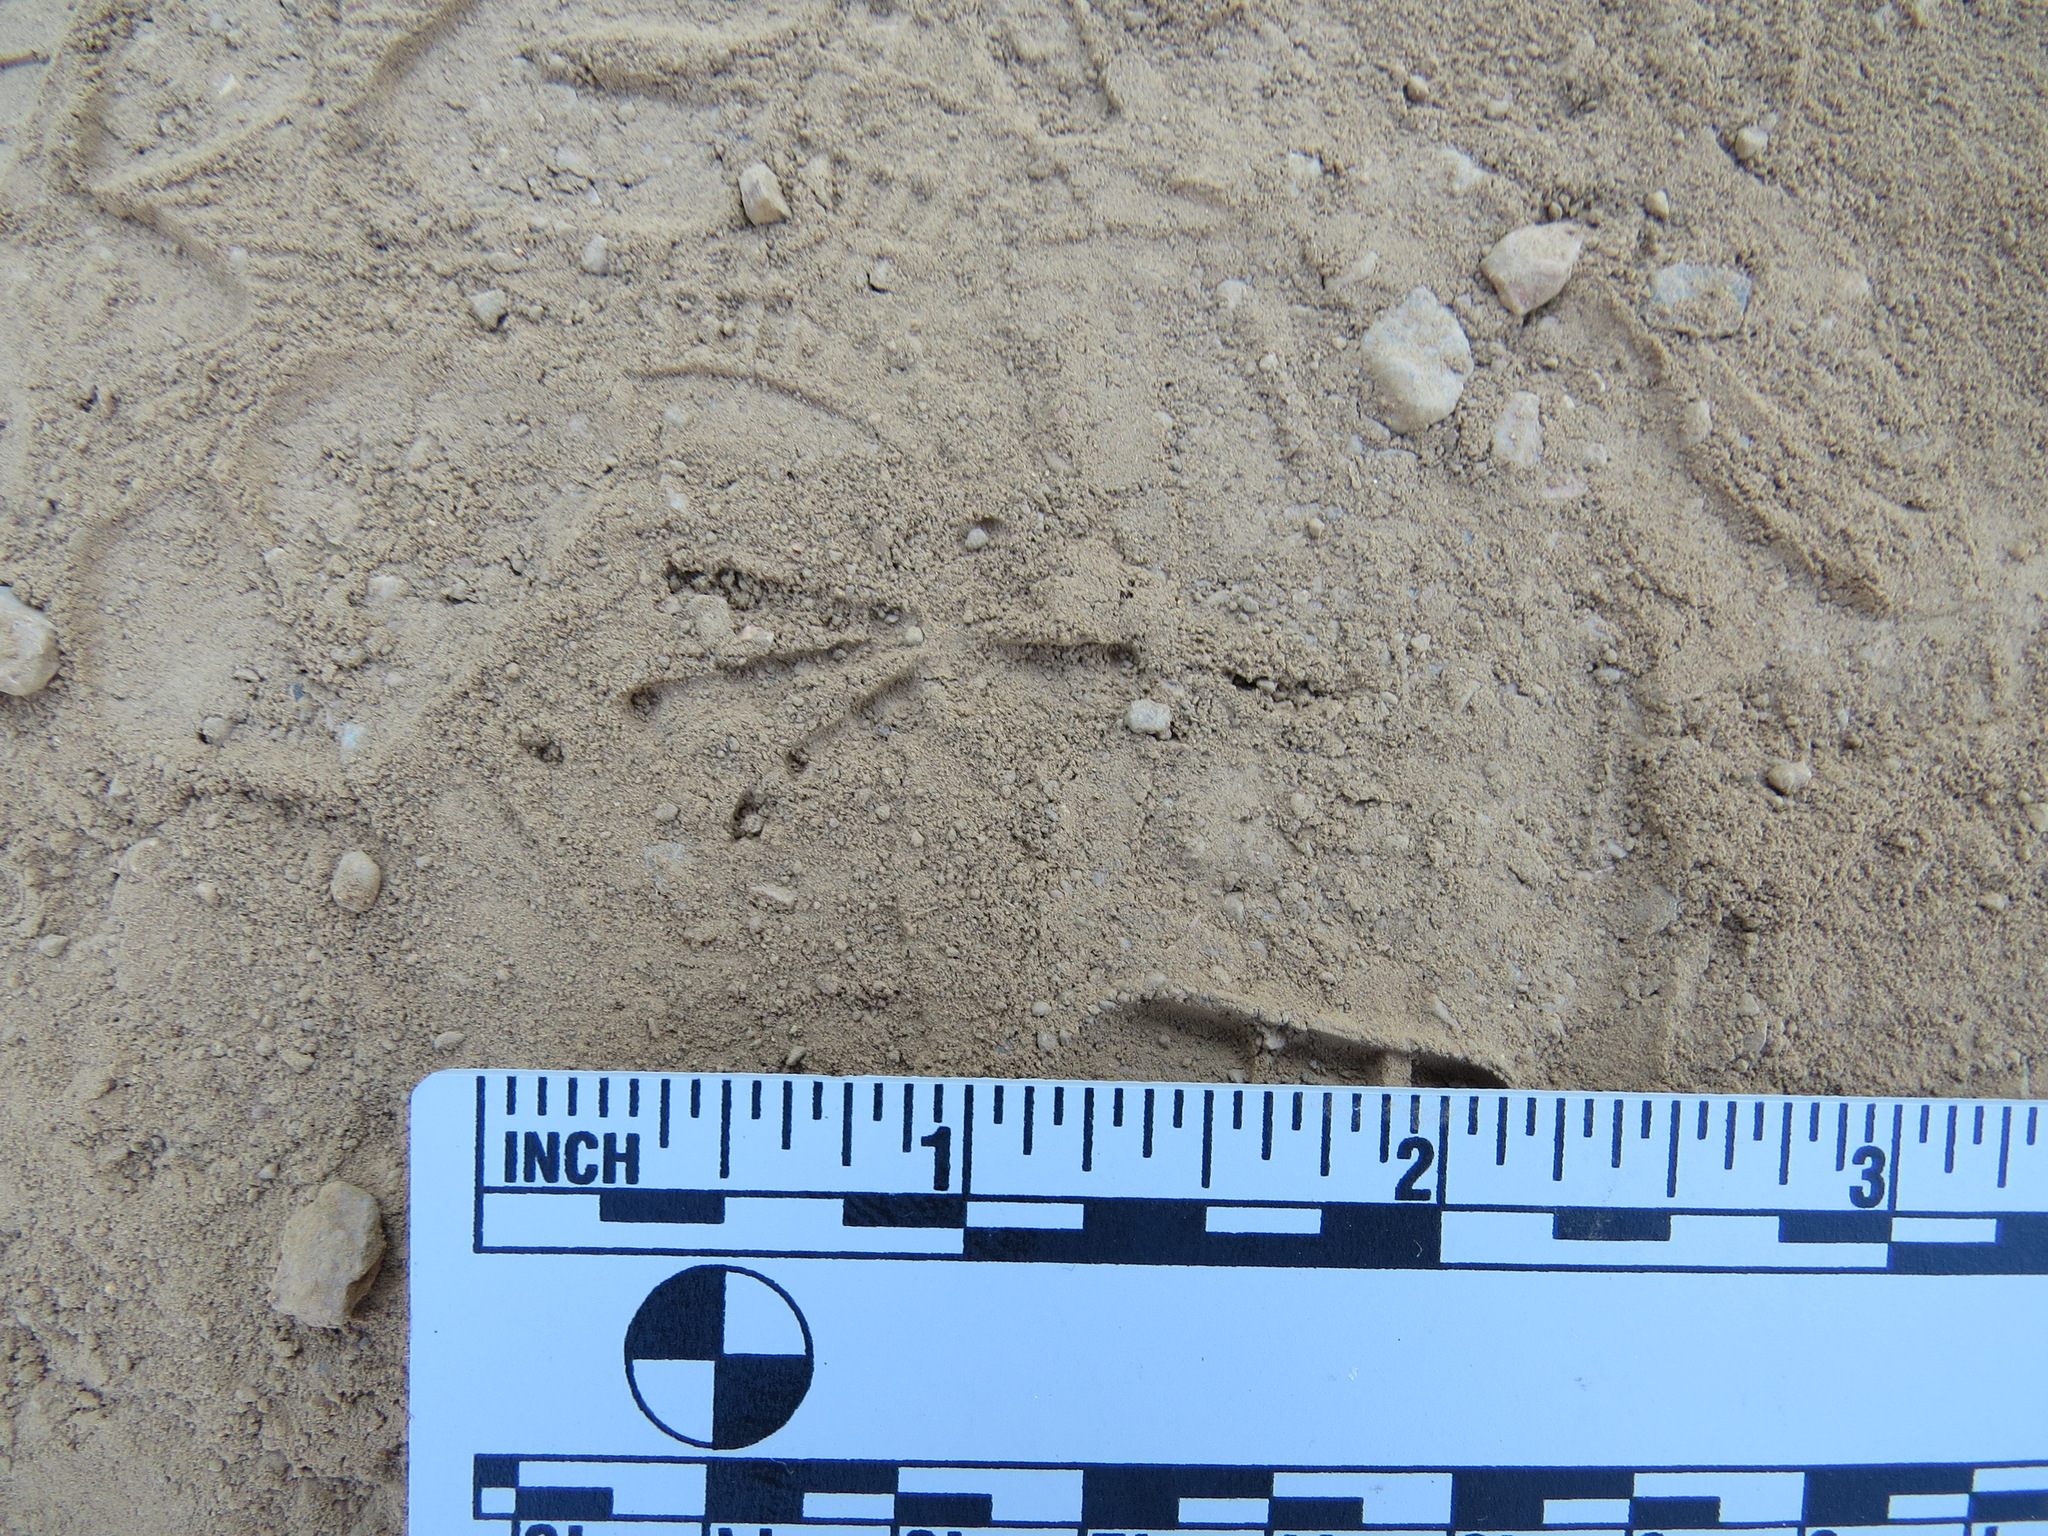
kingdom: Animalia
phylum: Chordata
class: Aves
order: Passeriformes
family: Passerellidae
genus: Zonotrichia
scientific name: Zonotrichia atricapilla
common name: Golden-crowned sparrow
